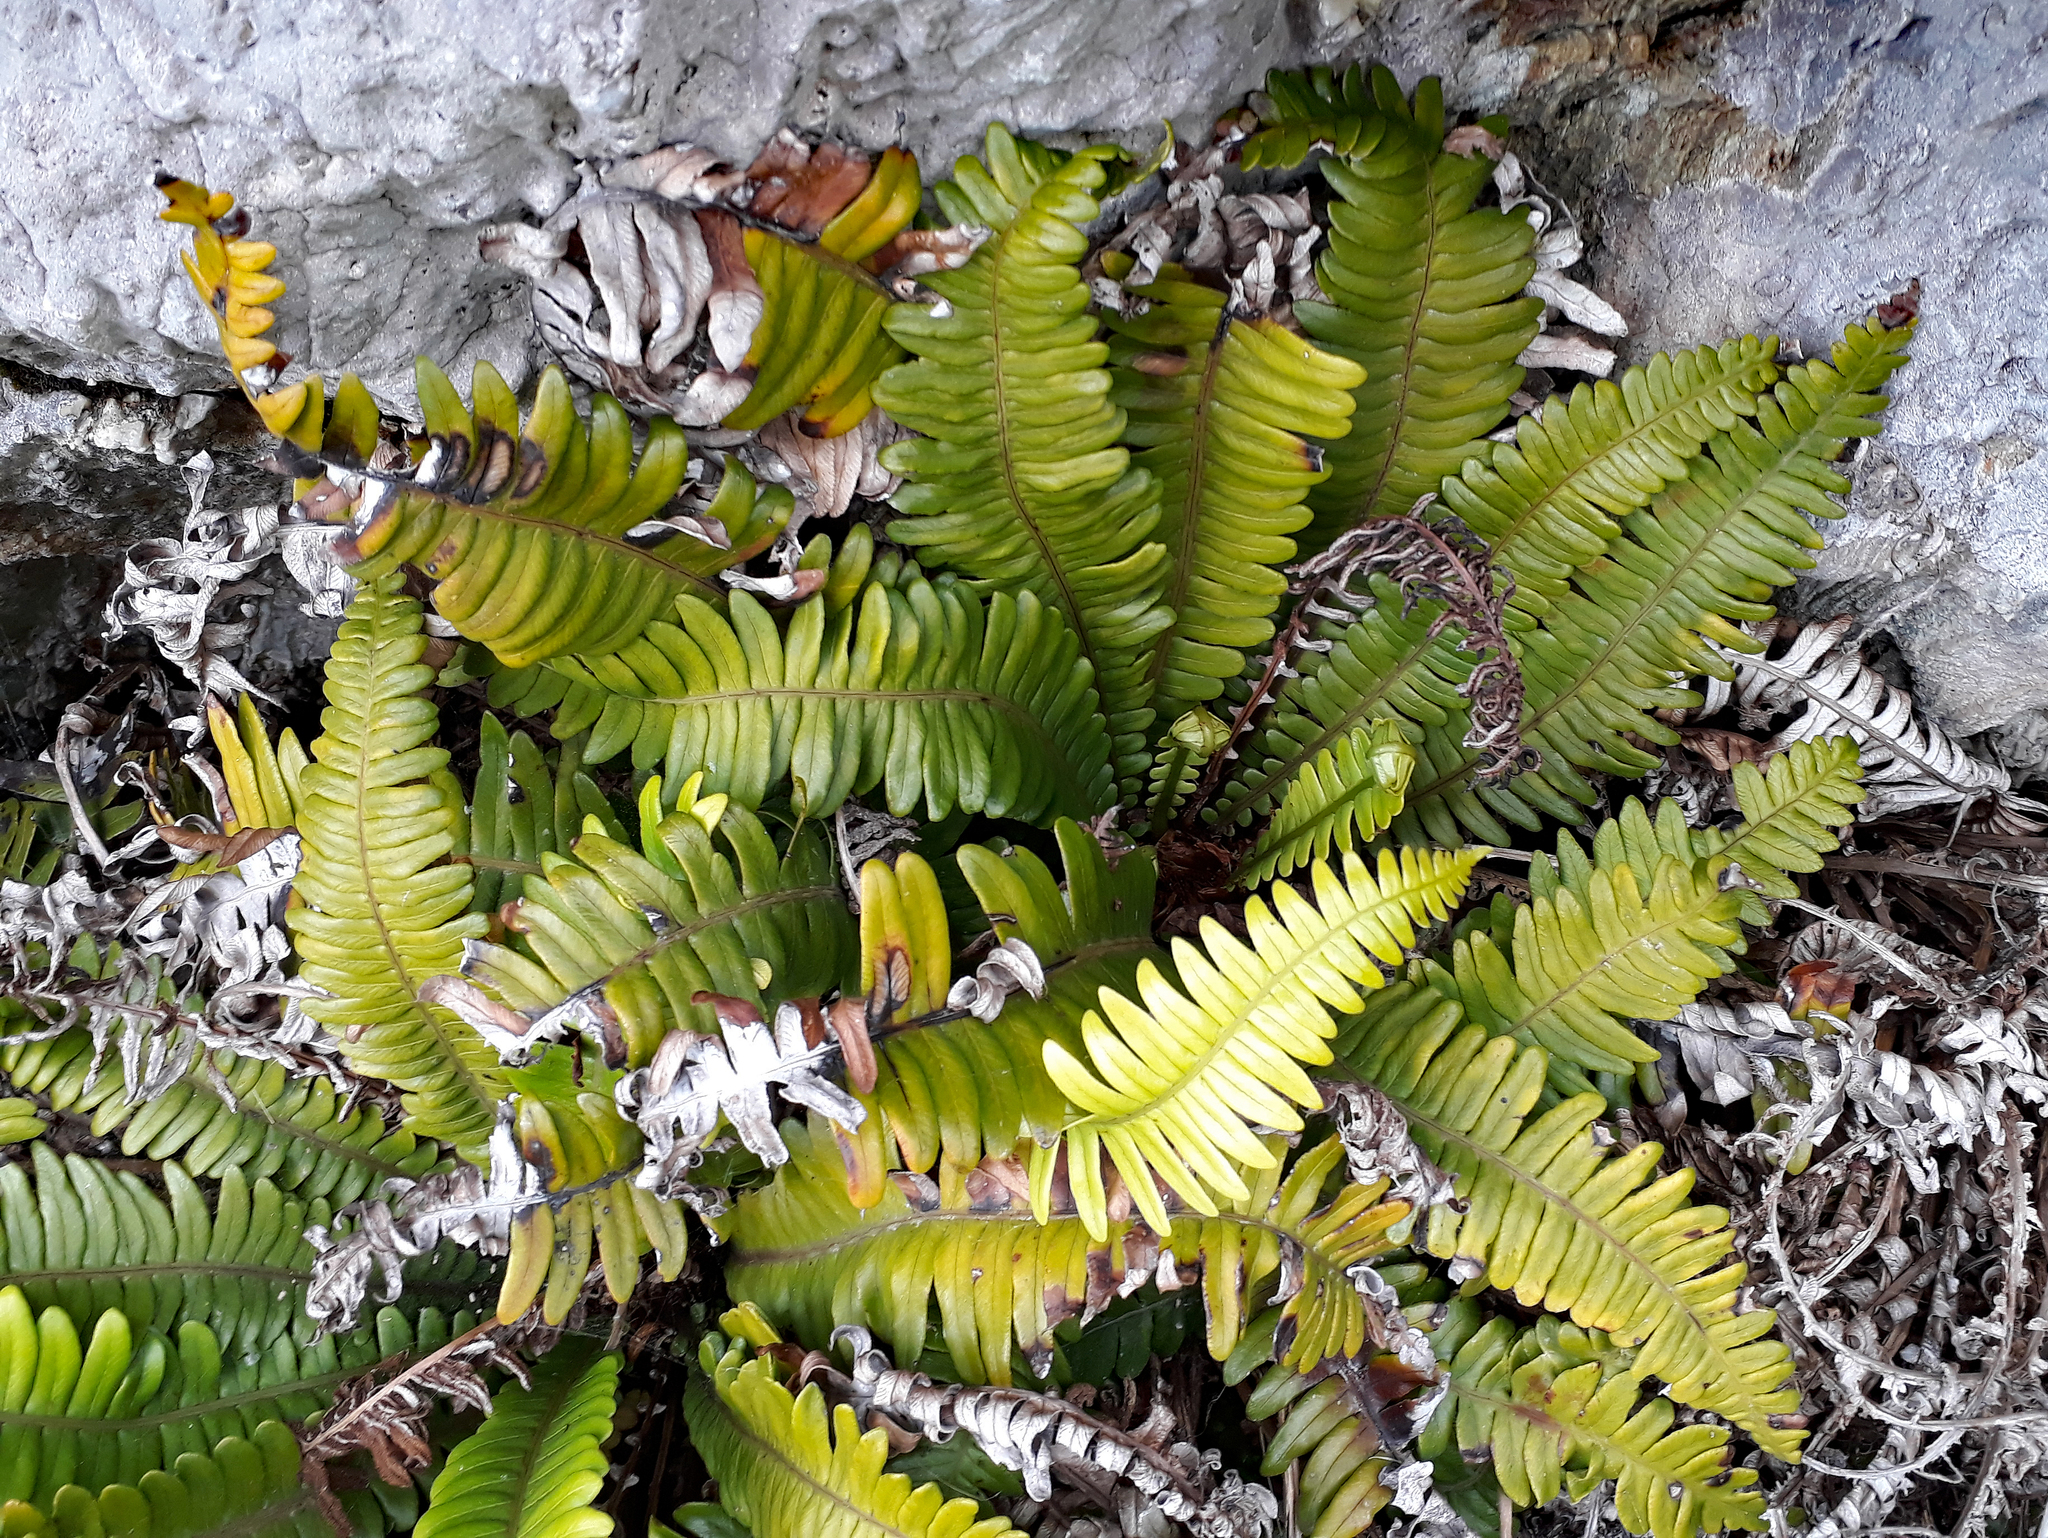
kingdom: Plantae
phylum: Tracheophyta
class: Polypodiopsida
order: Polypodiales
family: Blechnaceae
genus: Austroblechnum
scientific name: Austroblechnum durum
